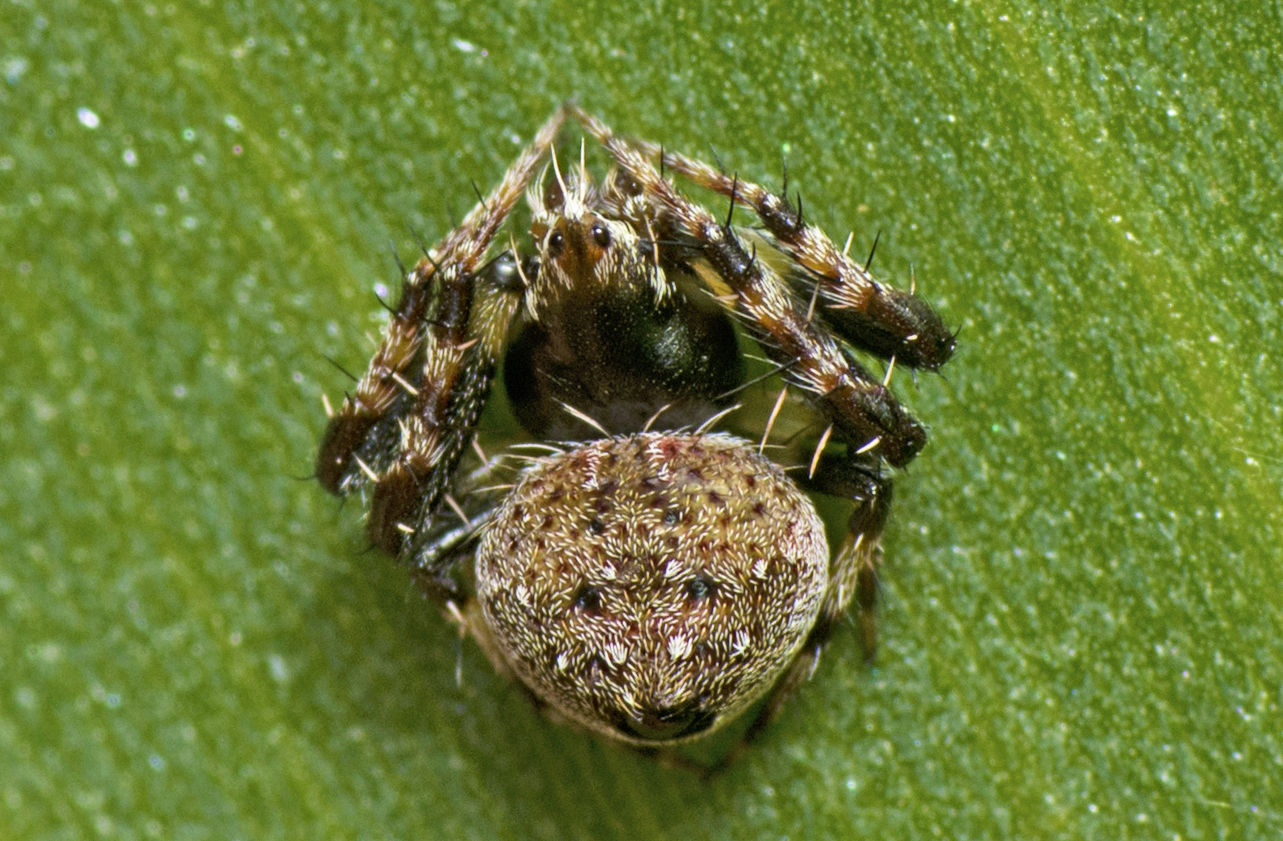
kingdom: Animalia
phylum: Arthropoda
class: Arachnida
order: Araneae
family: Araneidae
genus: Araneus
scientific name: Araneus rotundulus
